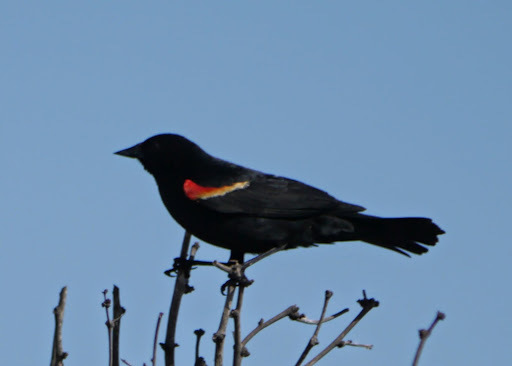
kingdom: Animalia
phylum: Chordata
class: Aves
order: Passeriformes
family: Icteridae
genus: Agelaius
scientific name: Agelaius phoeniceus
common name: Red-winged blackbird
